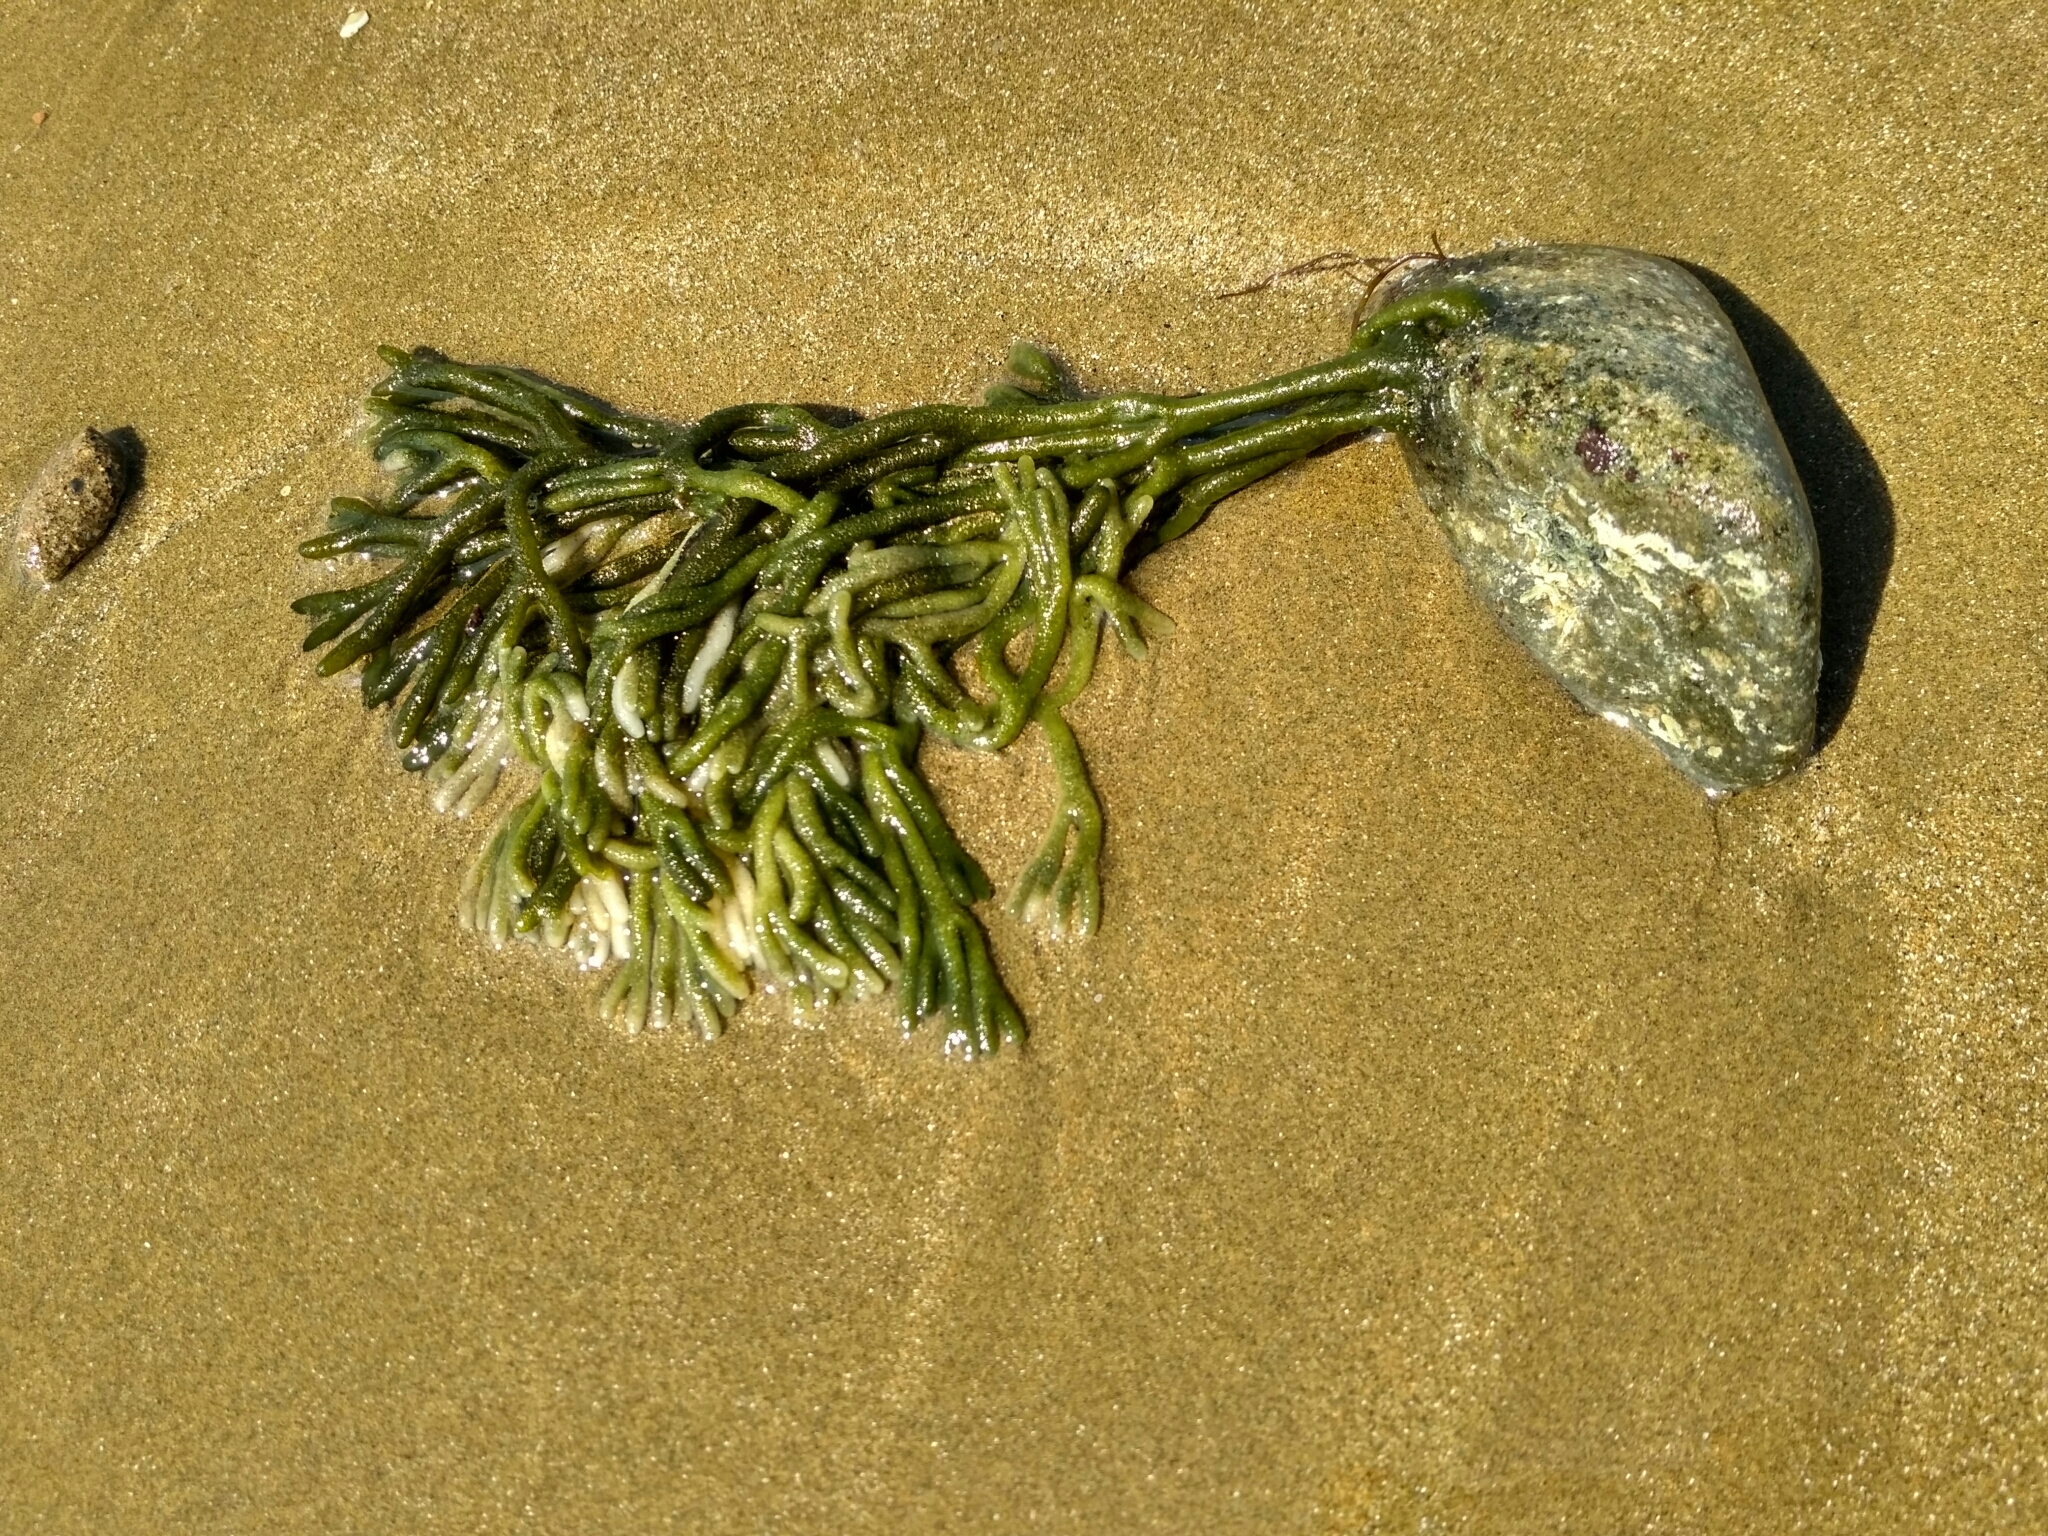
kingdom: Plantae
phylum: Chlorophyta
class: Ulvophyceae
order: Bryopsidales
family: Codiaceae
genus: Codium
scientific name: Codium fragile
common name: Dead man's fingers
